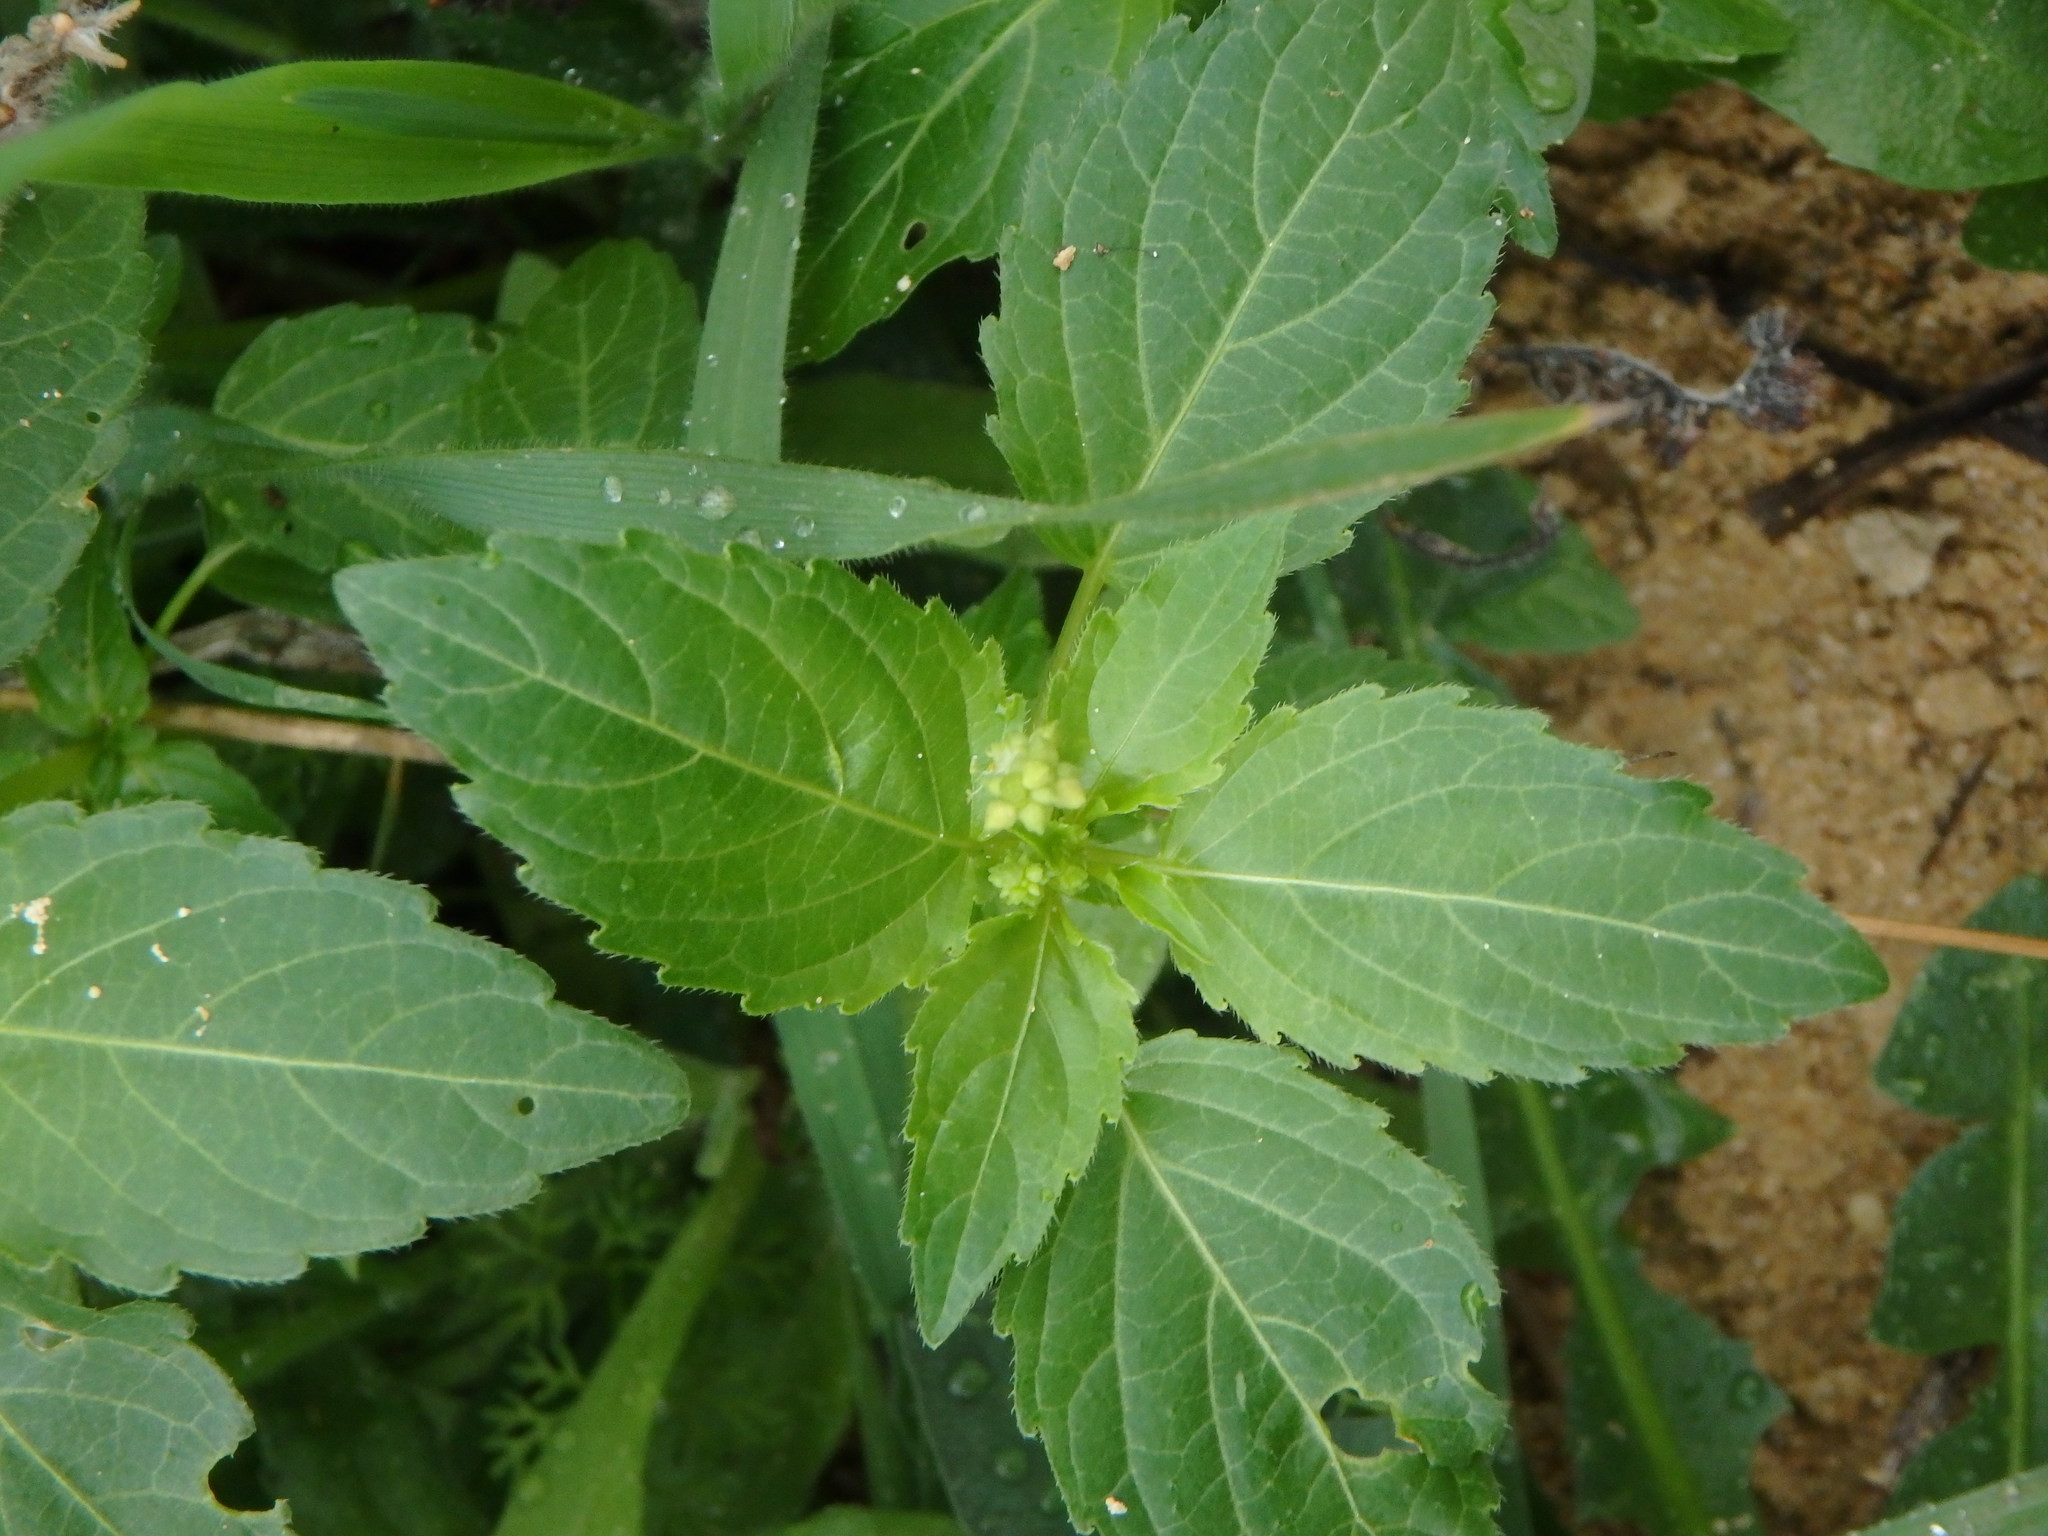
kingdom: Plantae
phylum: Tracheophyta
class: Magnoliopsida
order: Malpighiales
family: Euphorbiaceae
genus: Mercurialis
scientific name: Mercurialis annua
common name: Annual mercury
